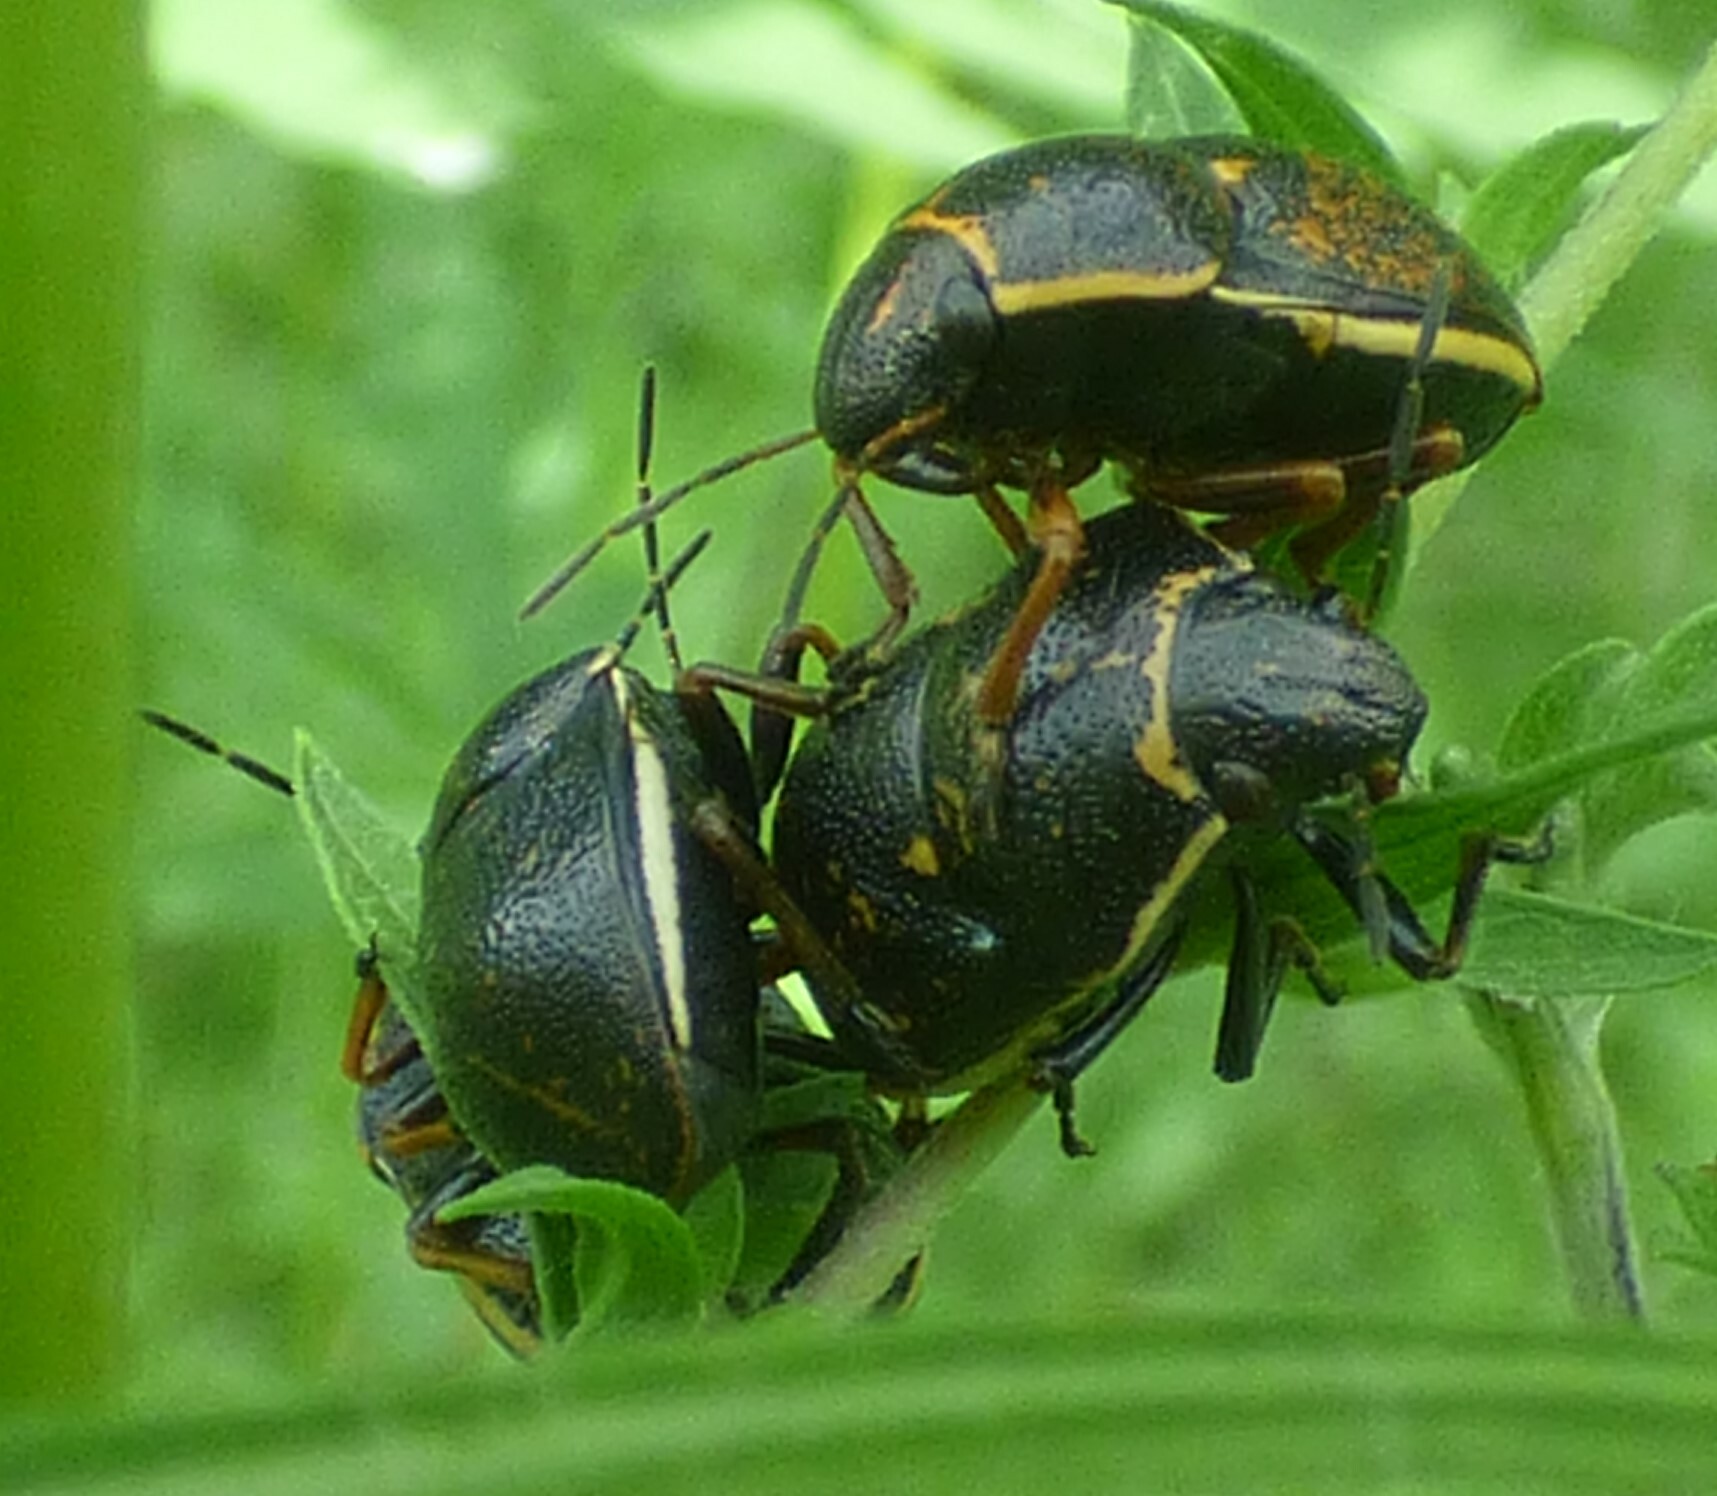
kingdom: Animalia
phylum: Arthropoda
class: Insecta
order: Hemiptera
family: Scutelleridae
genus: Orsilochides
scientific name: Orsilochides guttata
